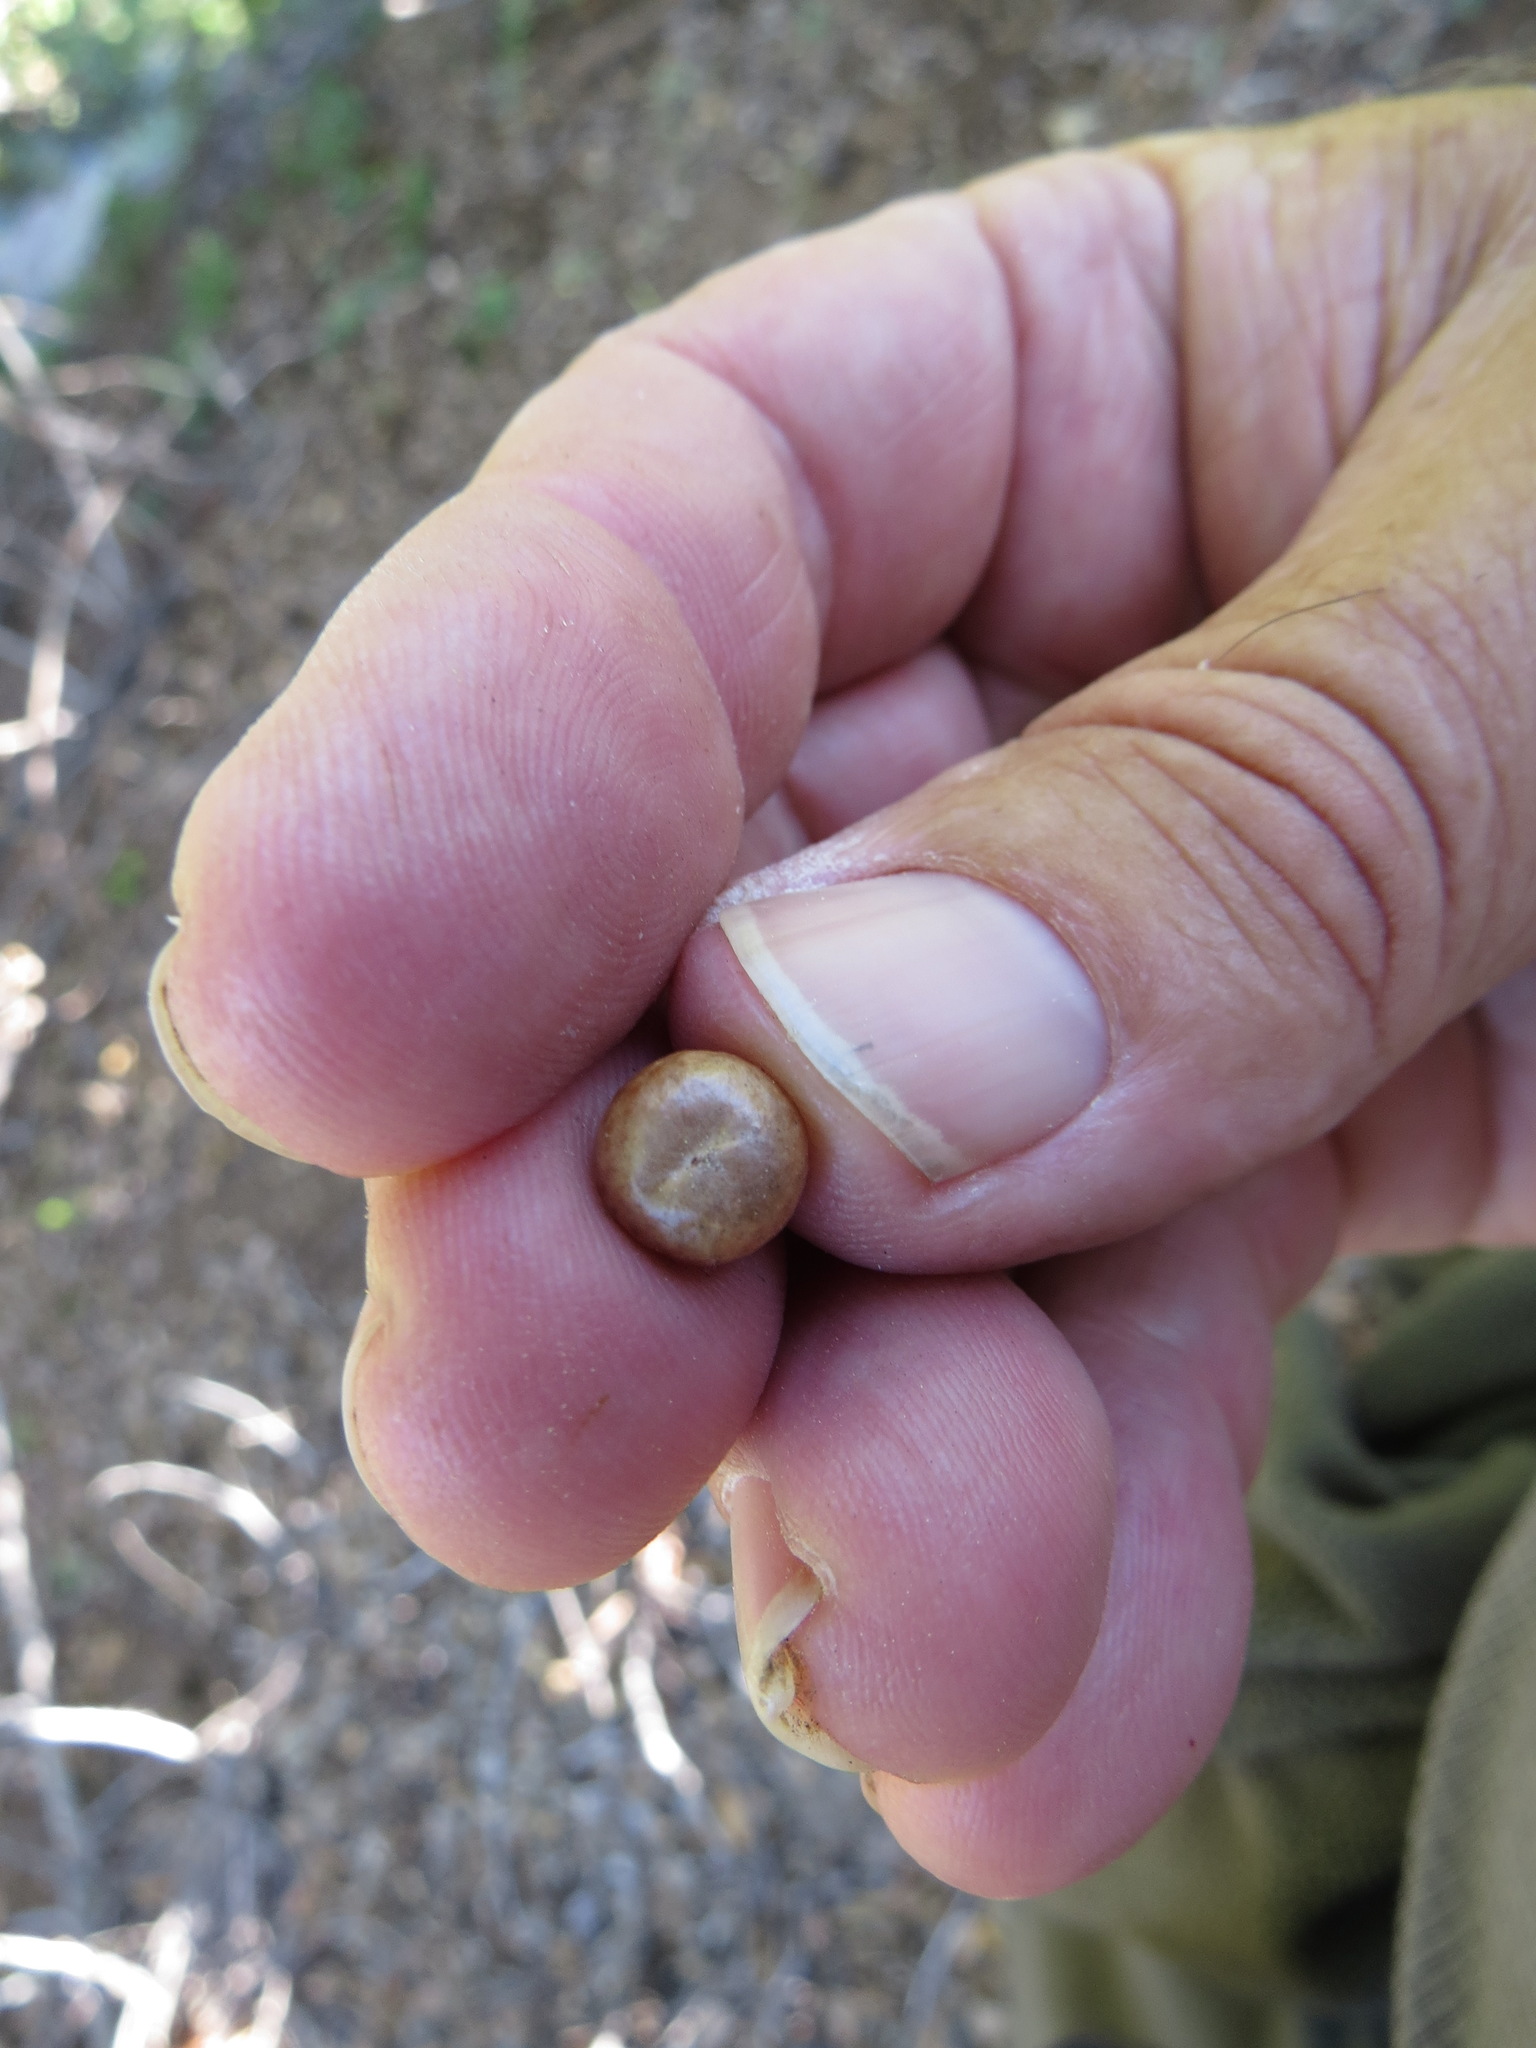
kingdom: Animalia
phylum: Arthropoda
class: Insecta
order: Hymenoptera
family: Cynipidae
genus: Andricus
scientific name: Andricus
